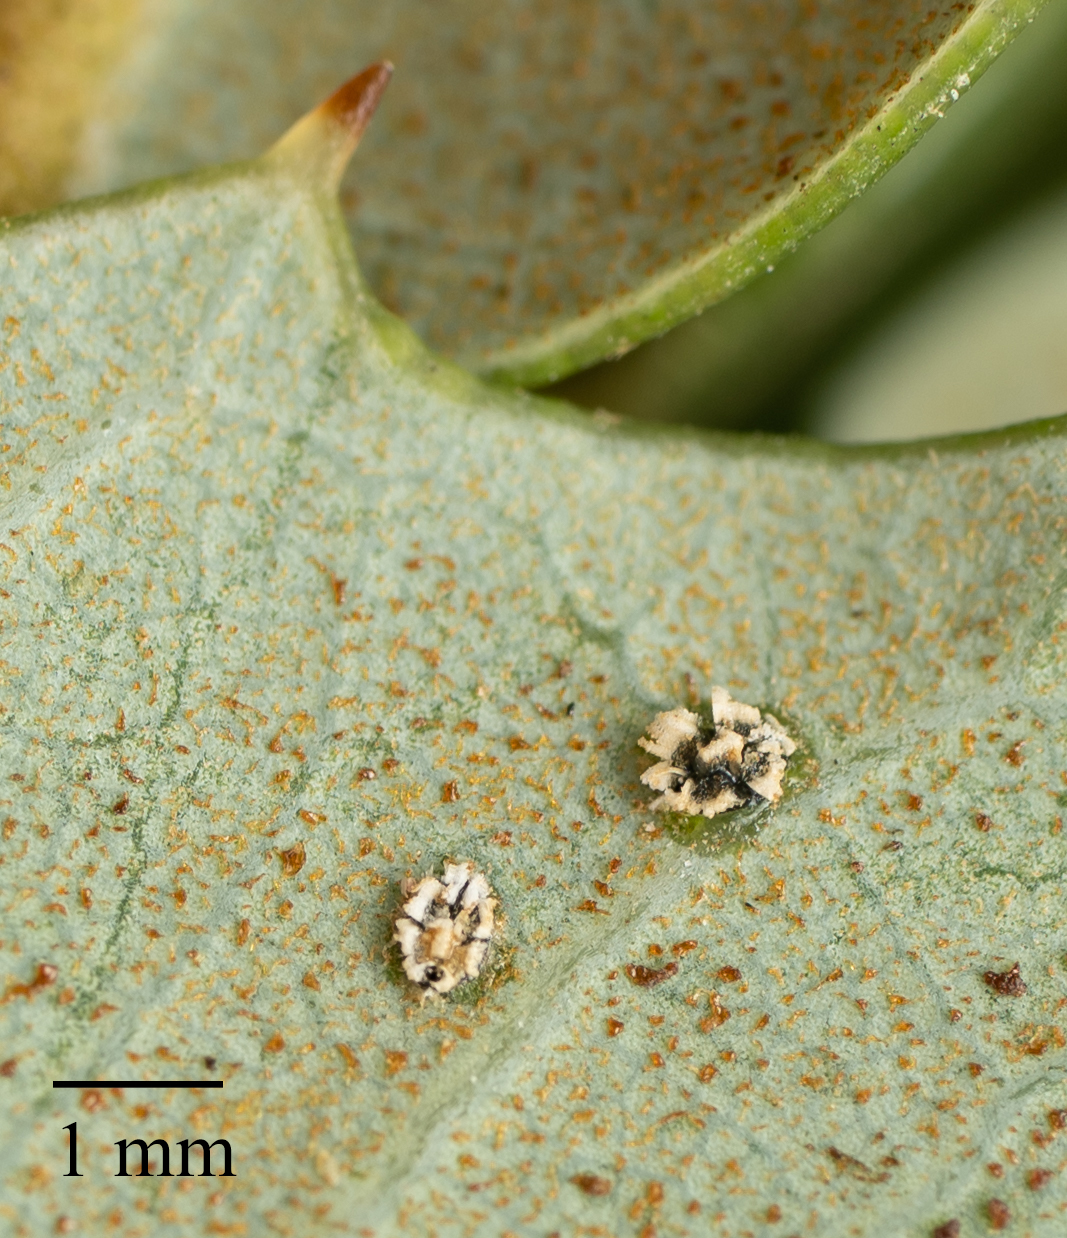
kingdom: Animalia
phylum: Arthropoda
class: Insecta
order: Hemiptera
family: Aleyrodidae
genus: Aleuroplatus
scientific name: Aleuroplatus coronata
